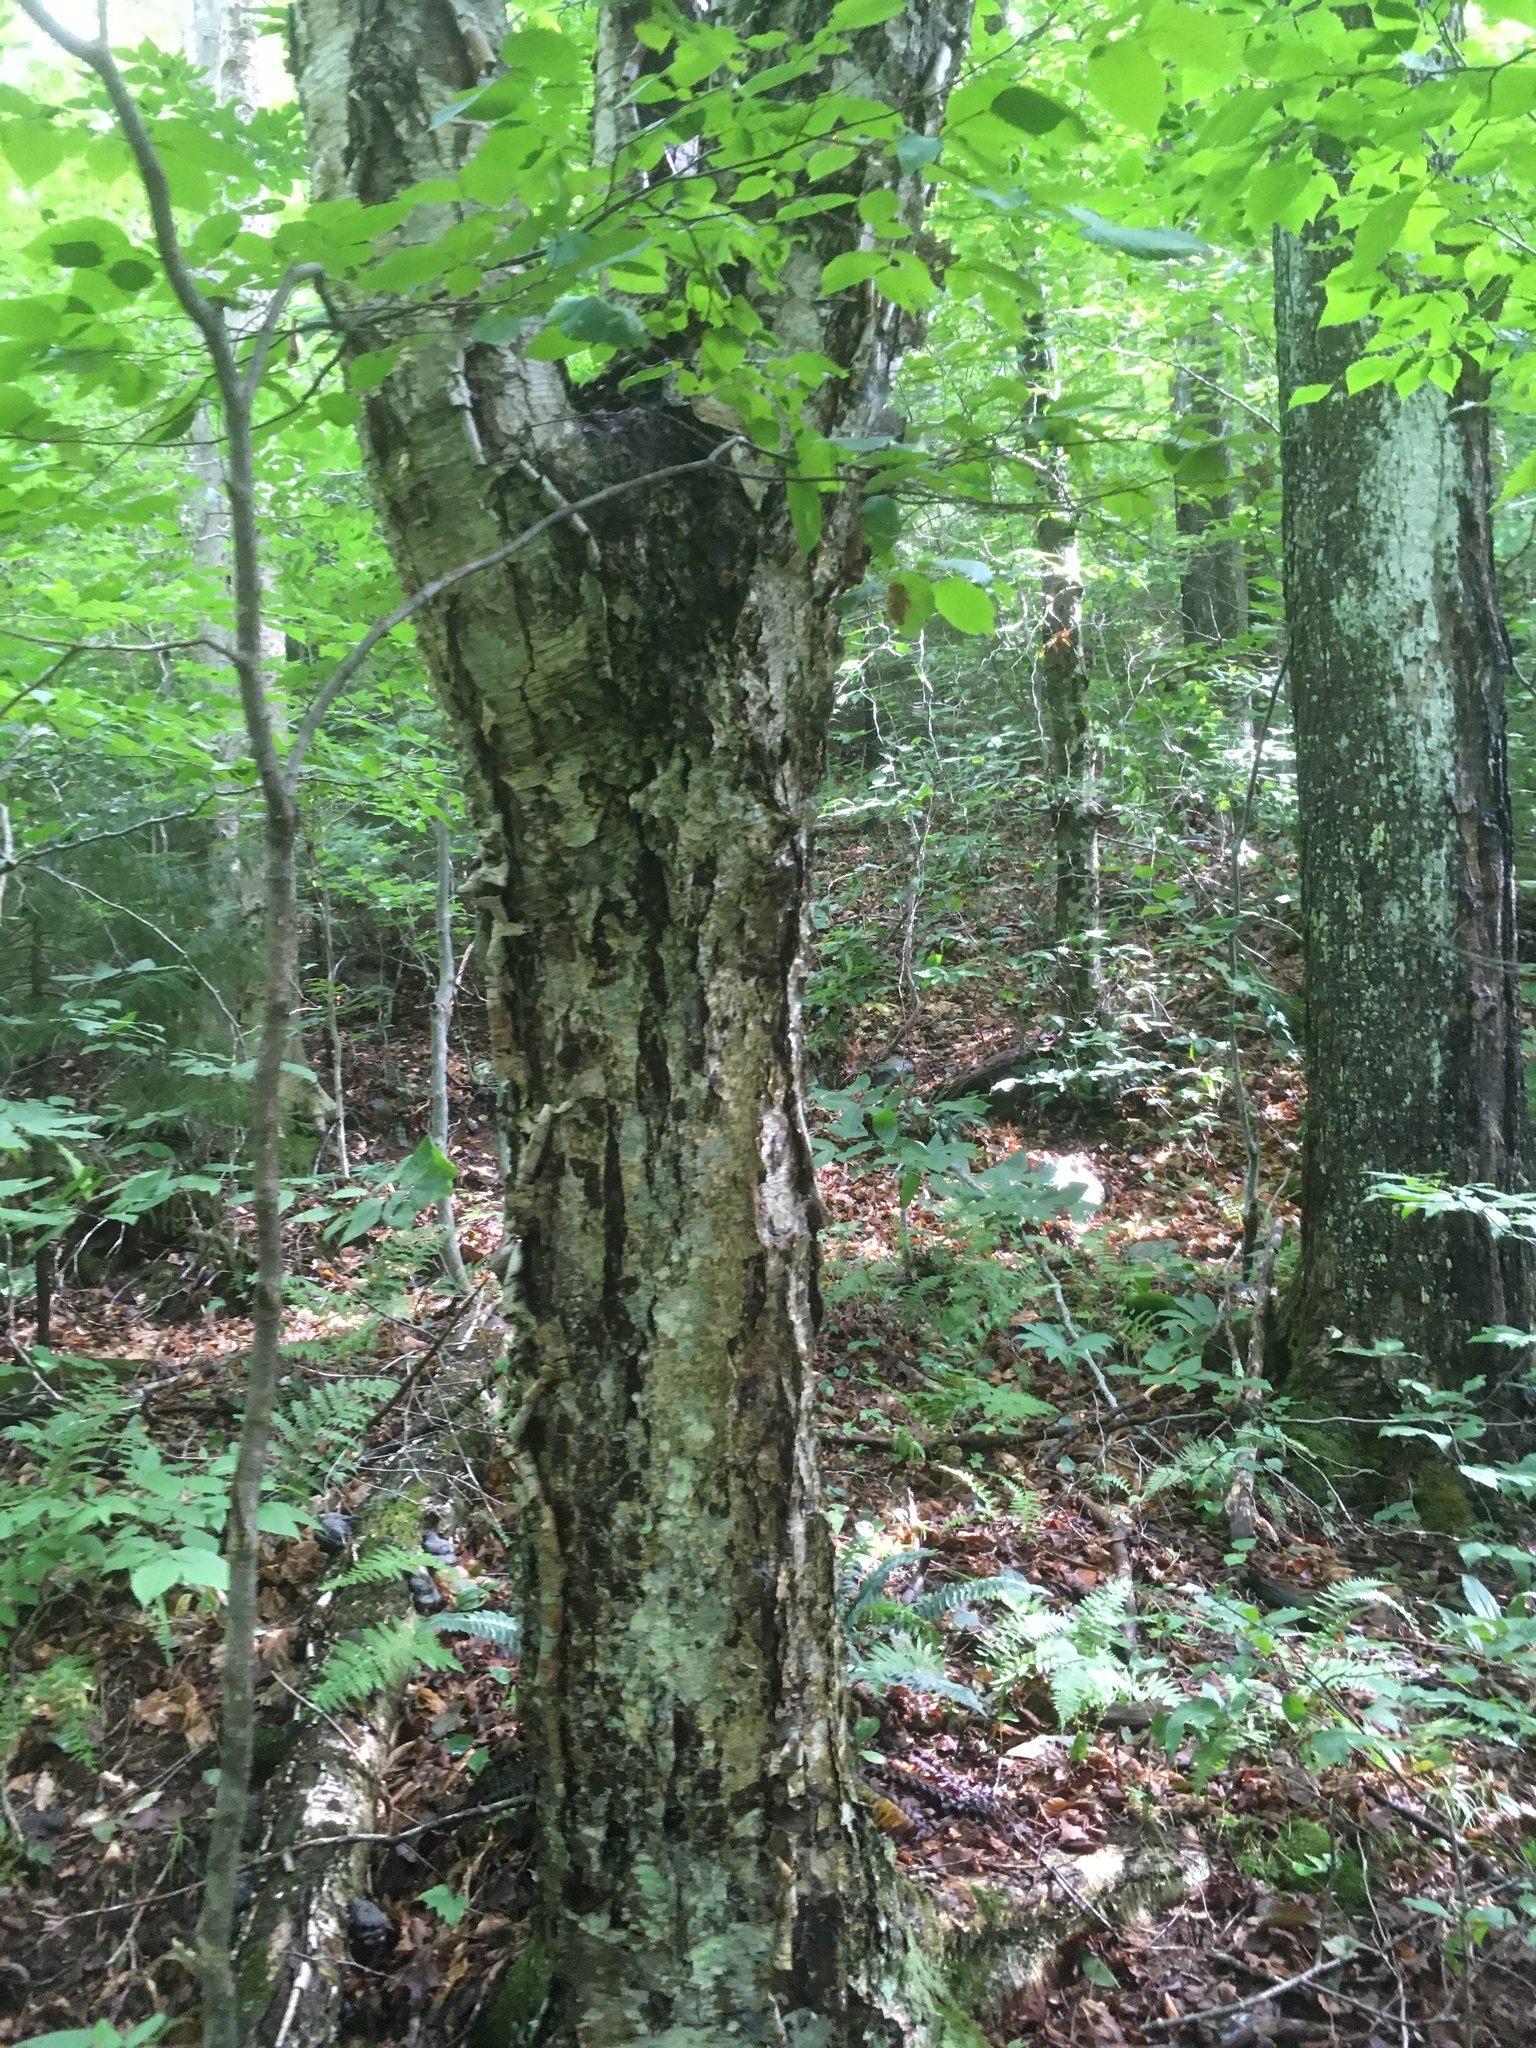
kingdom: Plantae
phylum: Tracheophyta
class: Magnoliopsida
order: Fagales
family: Betulaceae
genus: Betula
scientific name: Betula alleghaniensis
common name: Yellow birch
